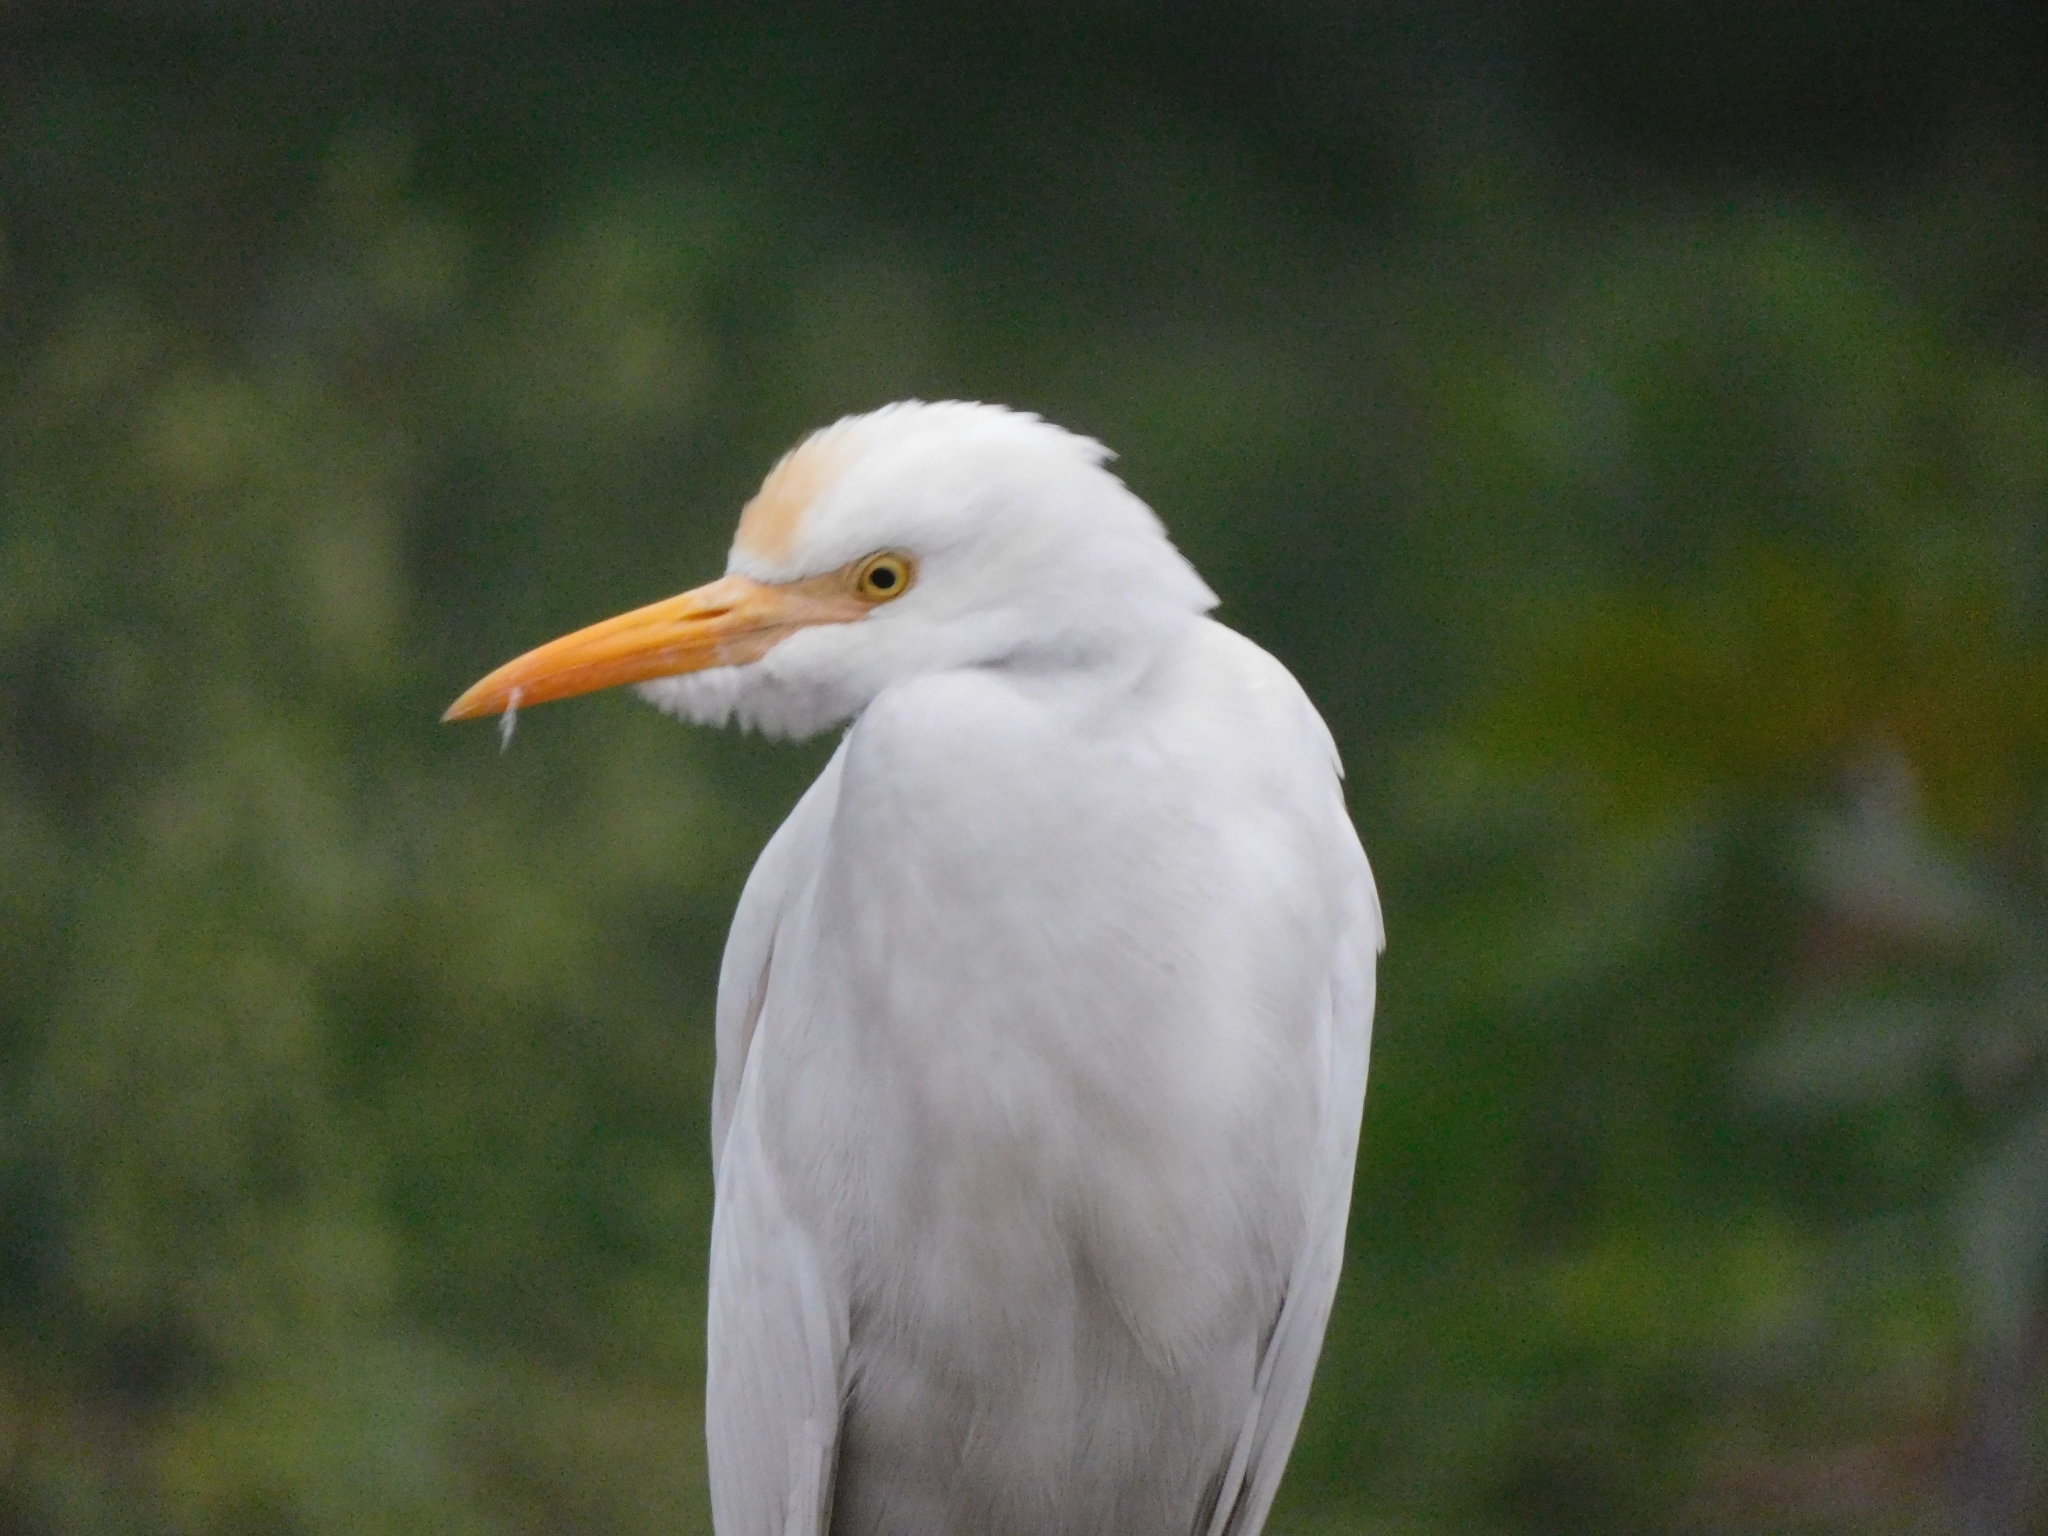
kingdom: Animalia
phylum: Chordata
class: Aves
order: Pelecaniformes
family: Ardeidae
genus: Bubulcus
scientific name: Bubulcus coromandus
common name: Eastern cattle egret
